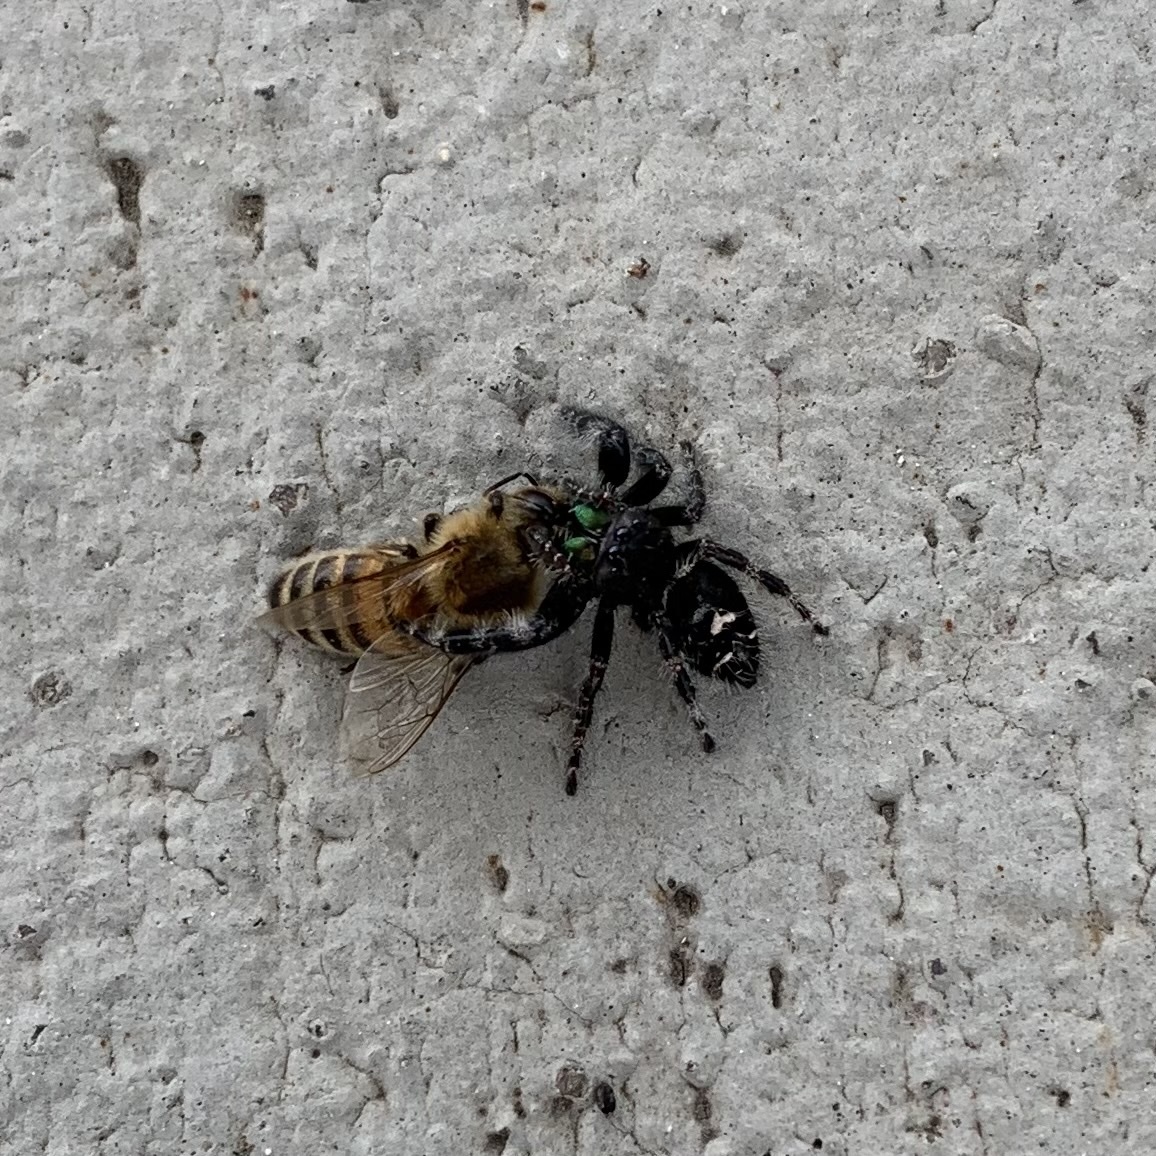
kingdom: Animalia
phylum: Arthropoda
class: Arachnida
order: Araneae
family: Salticidae
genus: Phidippus
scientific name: Phidippus audax
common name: Bold jumper
